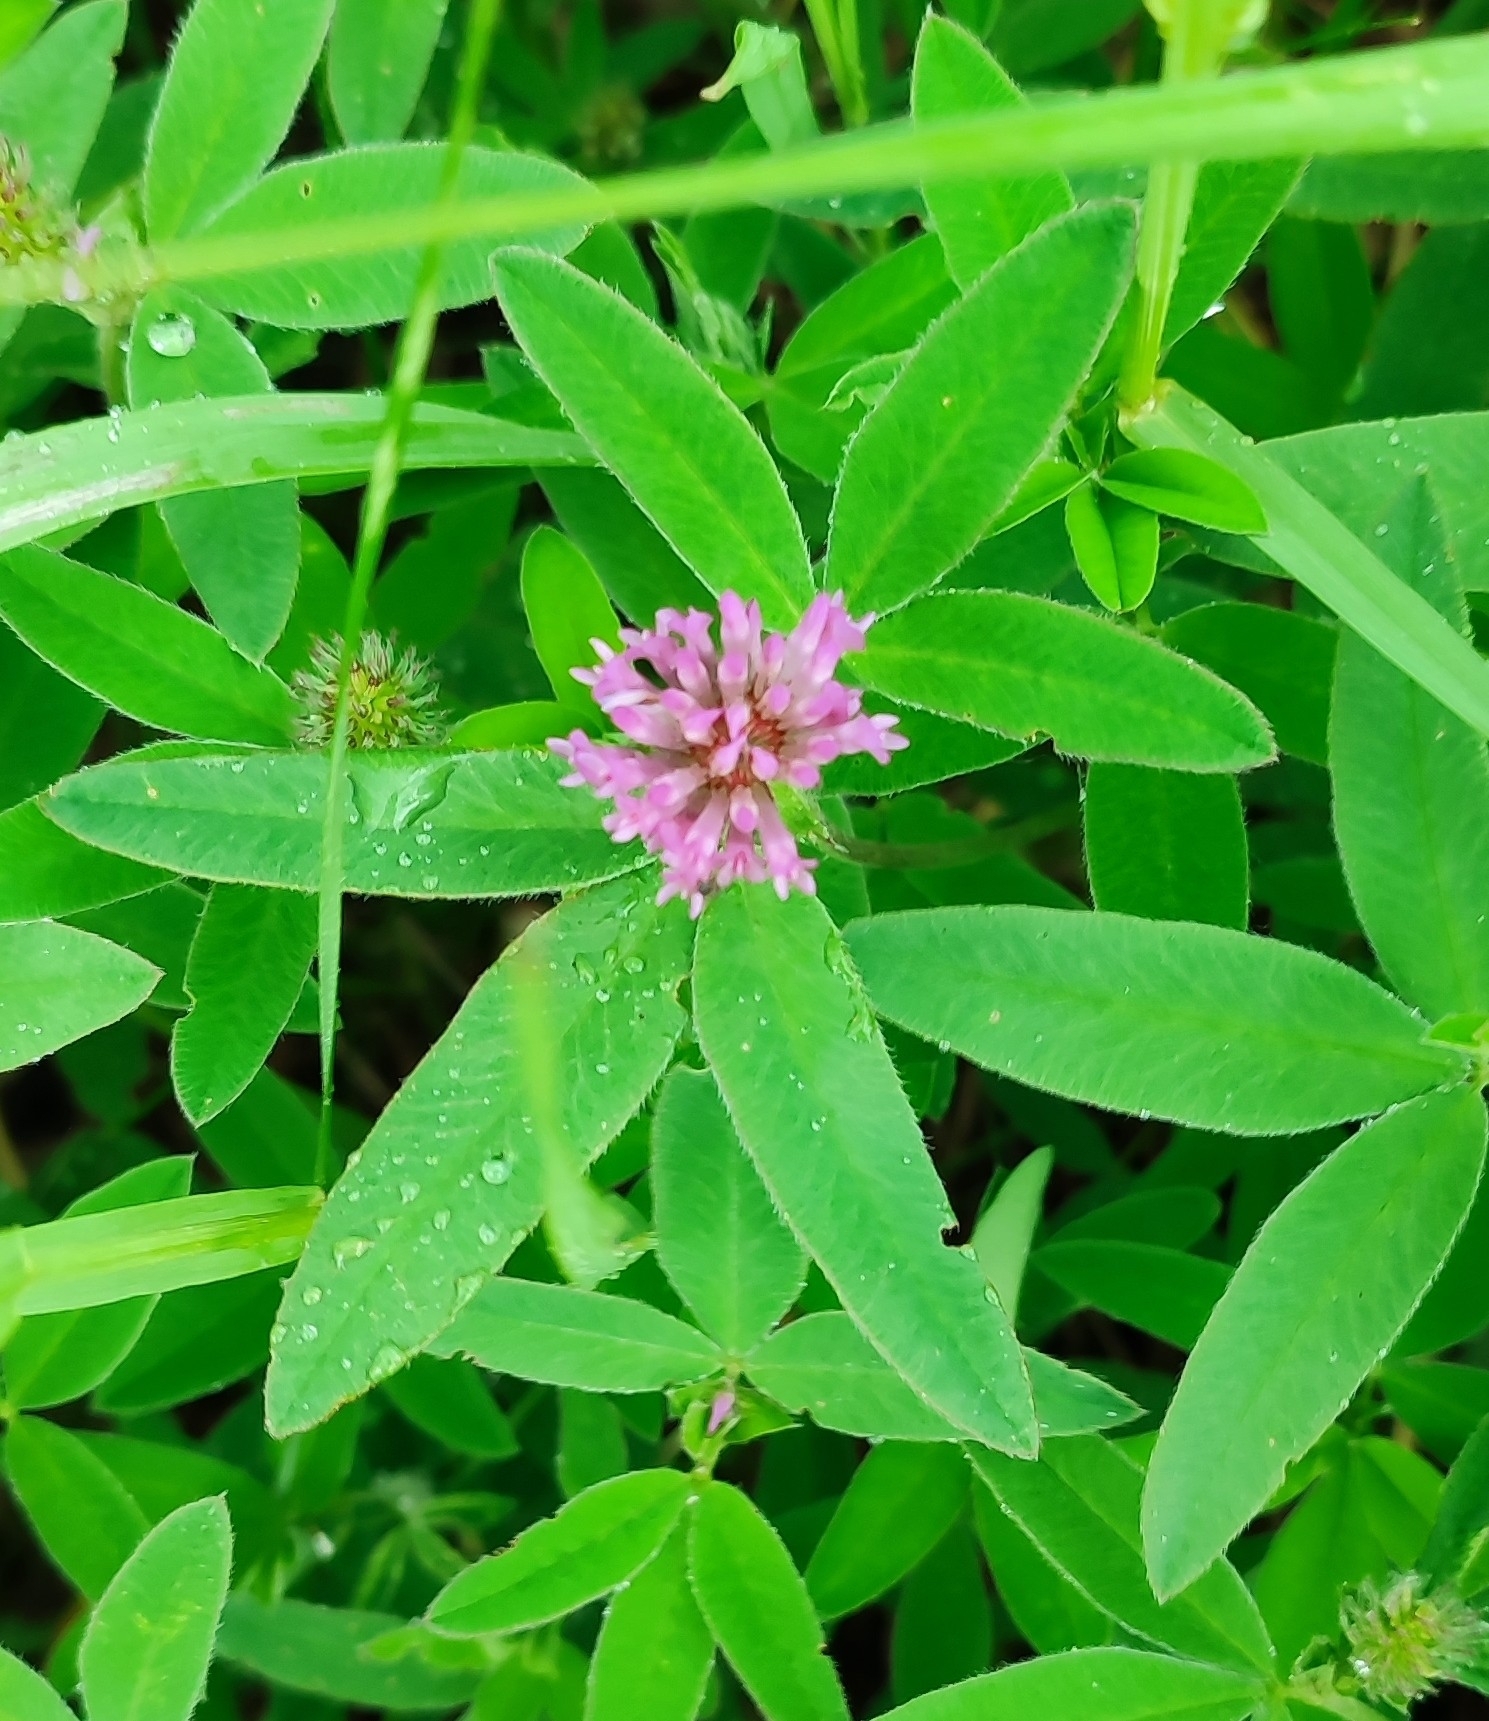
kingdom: Plantae
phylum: Tracheophyta
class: Magnoliopsida
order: Fabales
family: Fabaceae
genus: Trifolium
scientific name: Trifolium medium
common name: Zigzag clover
